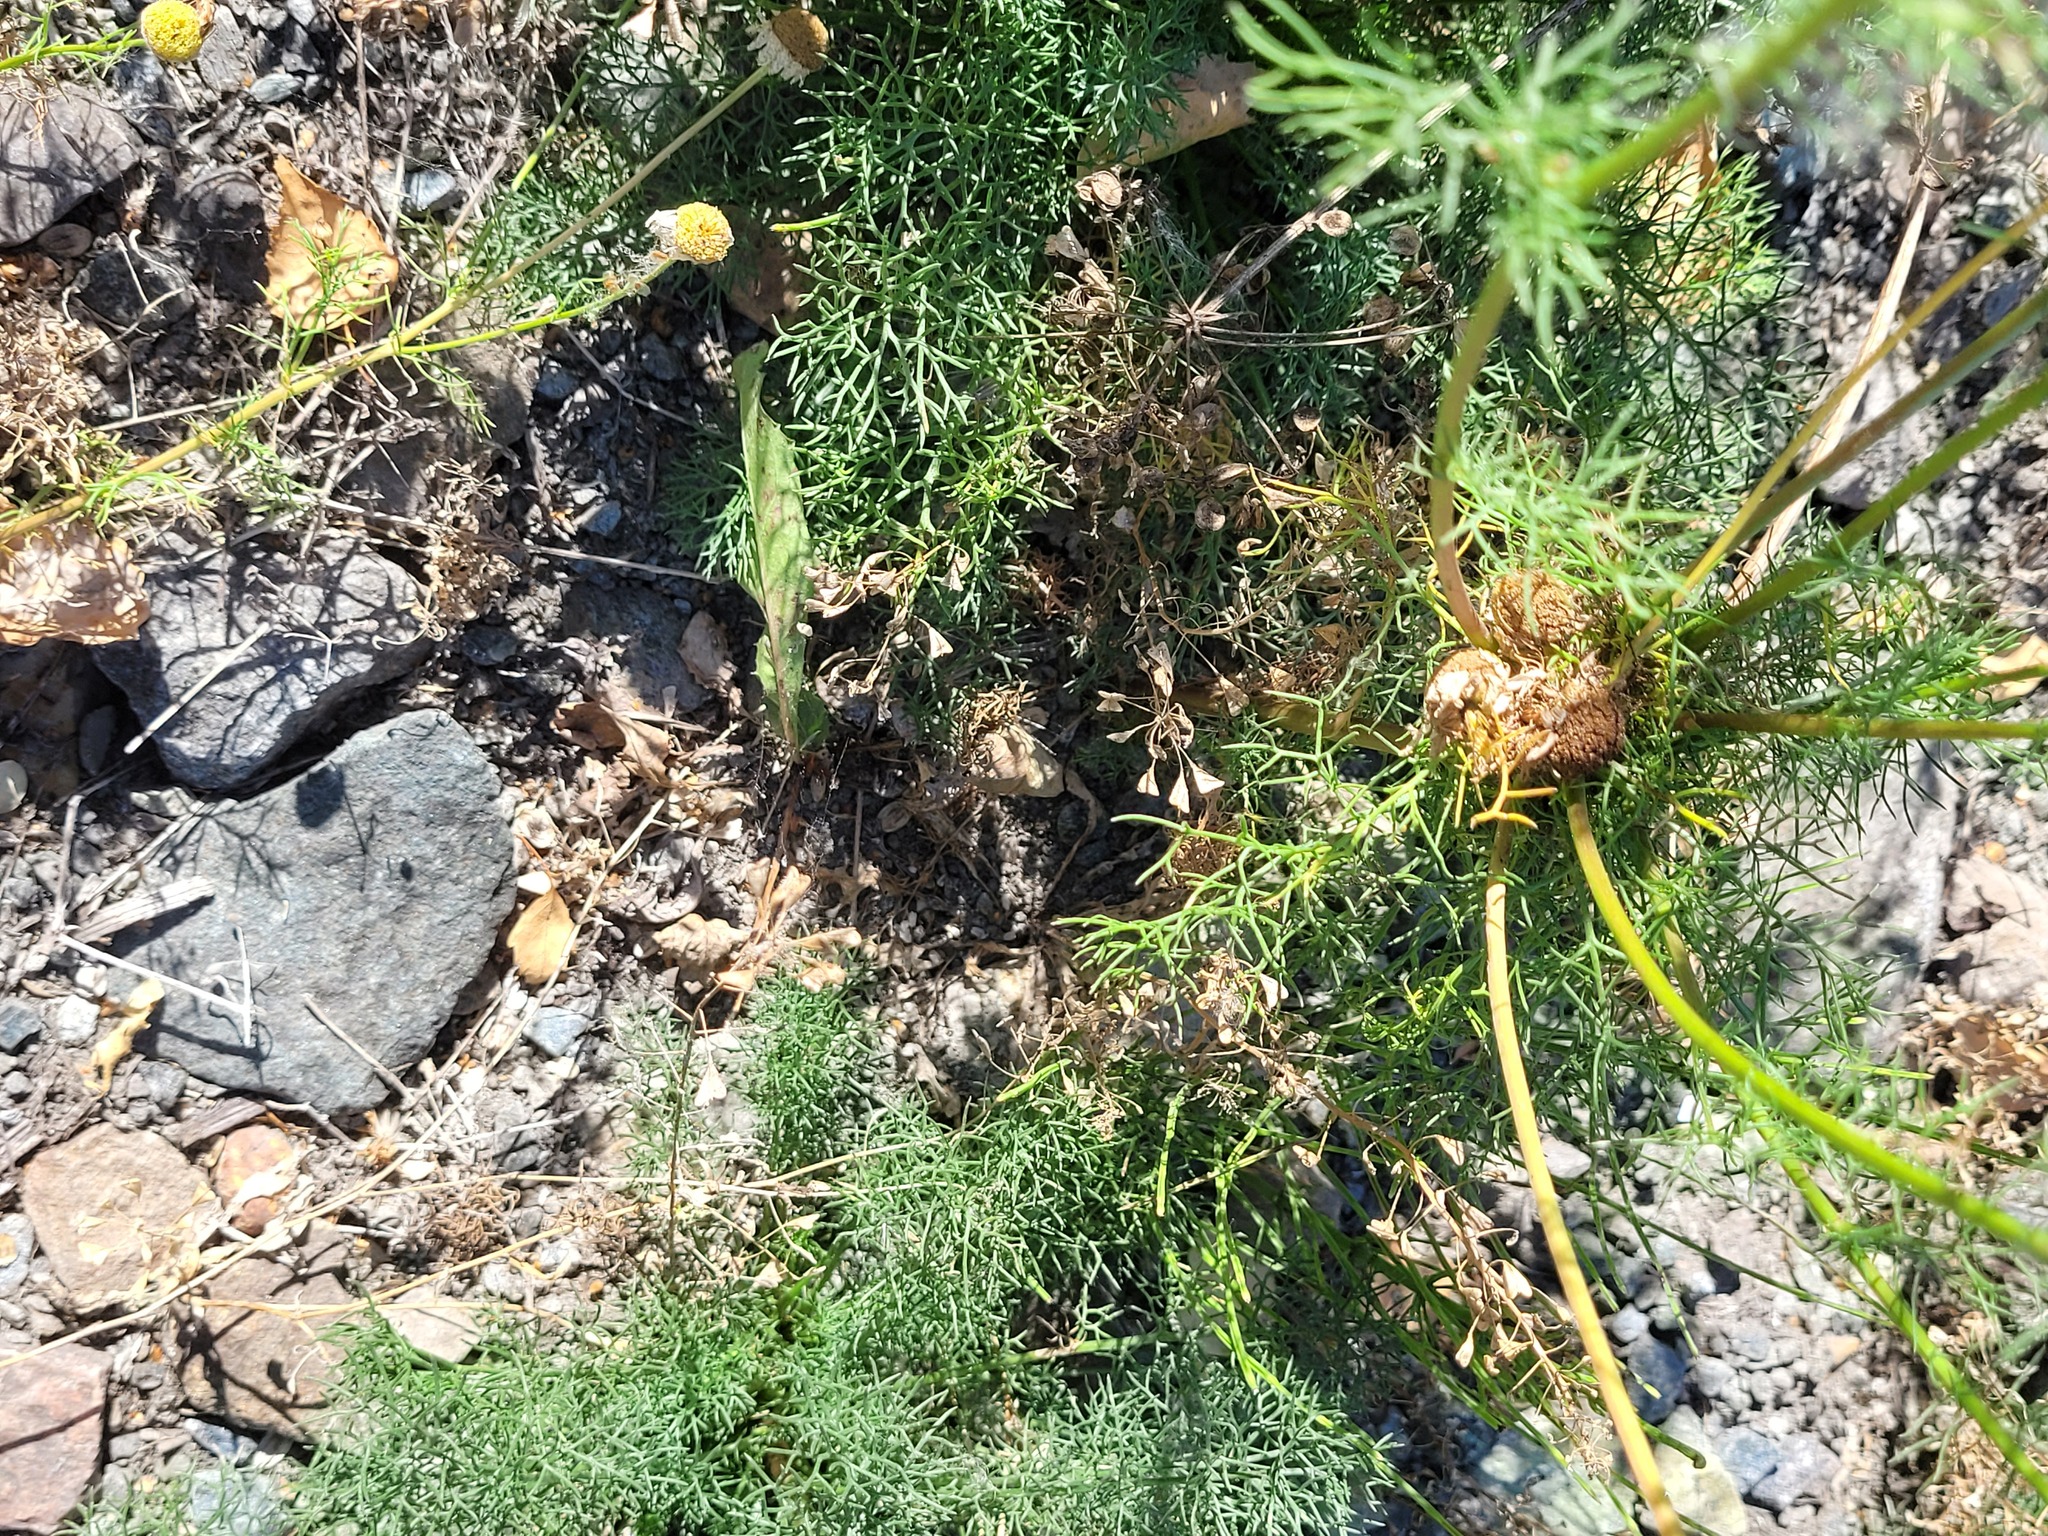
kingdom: Plantae
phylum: Tracheophyta
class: Magnoliopsida
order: Brassicales
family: Brassicaceae
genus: Capsella
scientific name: Capsella bursa-pastoris
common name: Shepherd's purse
